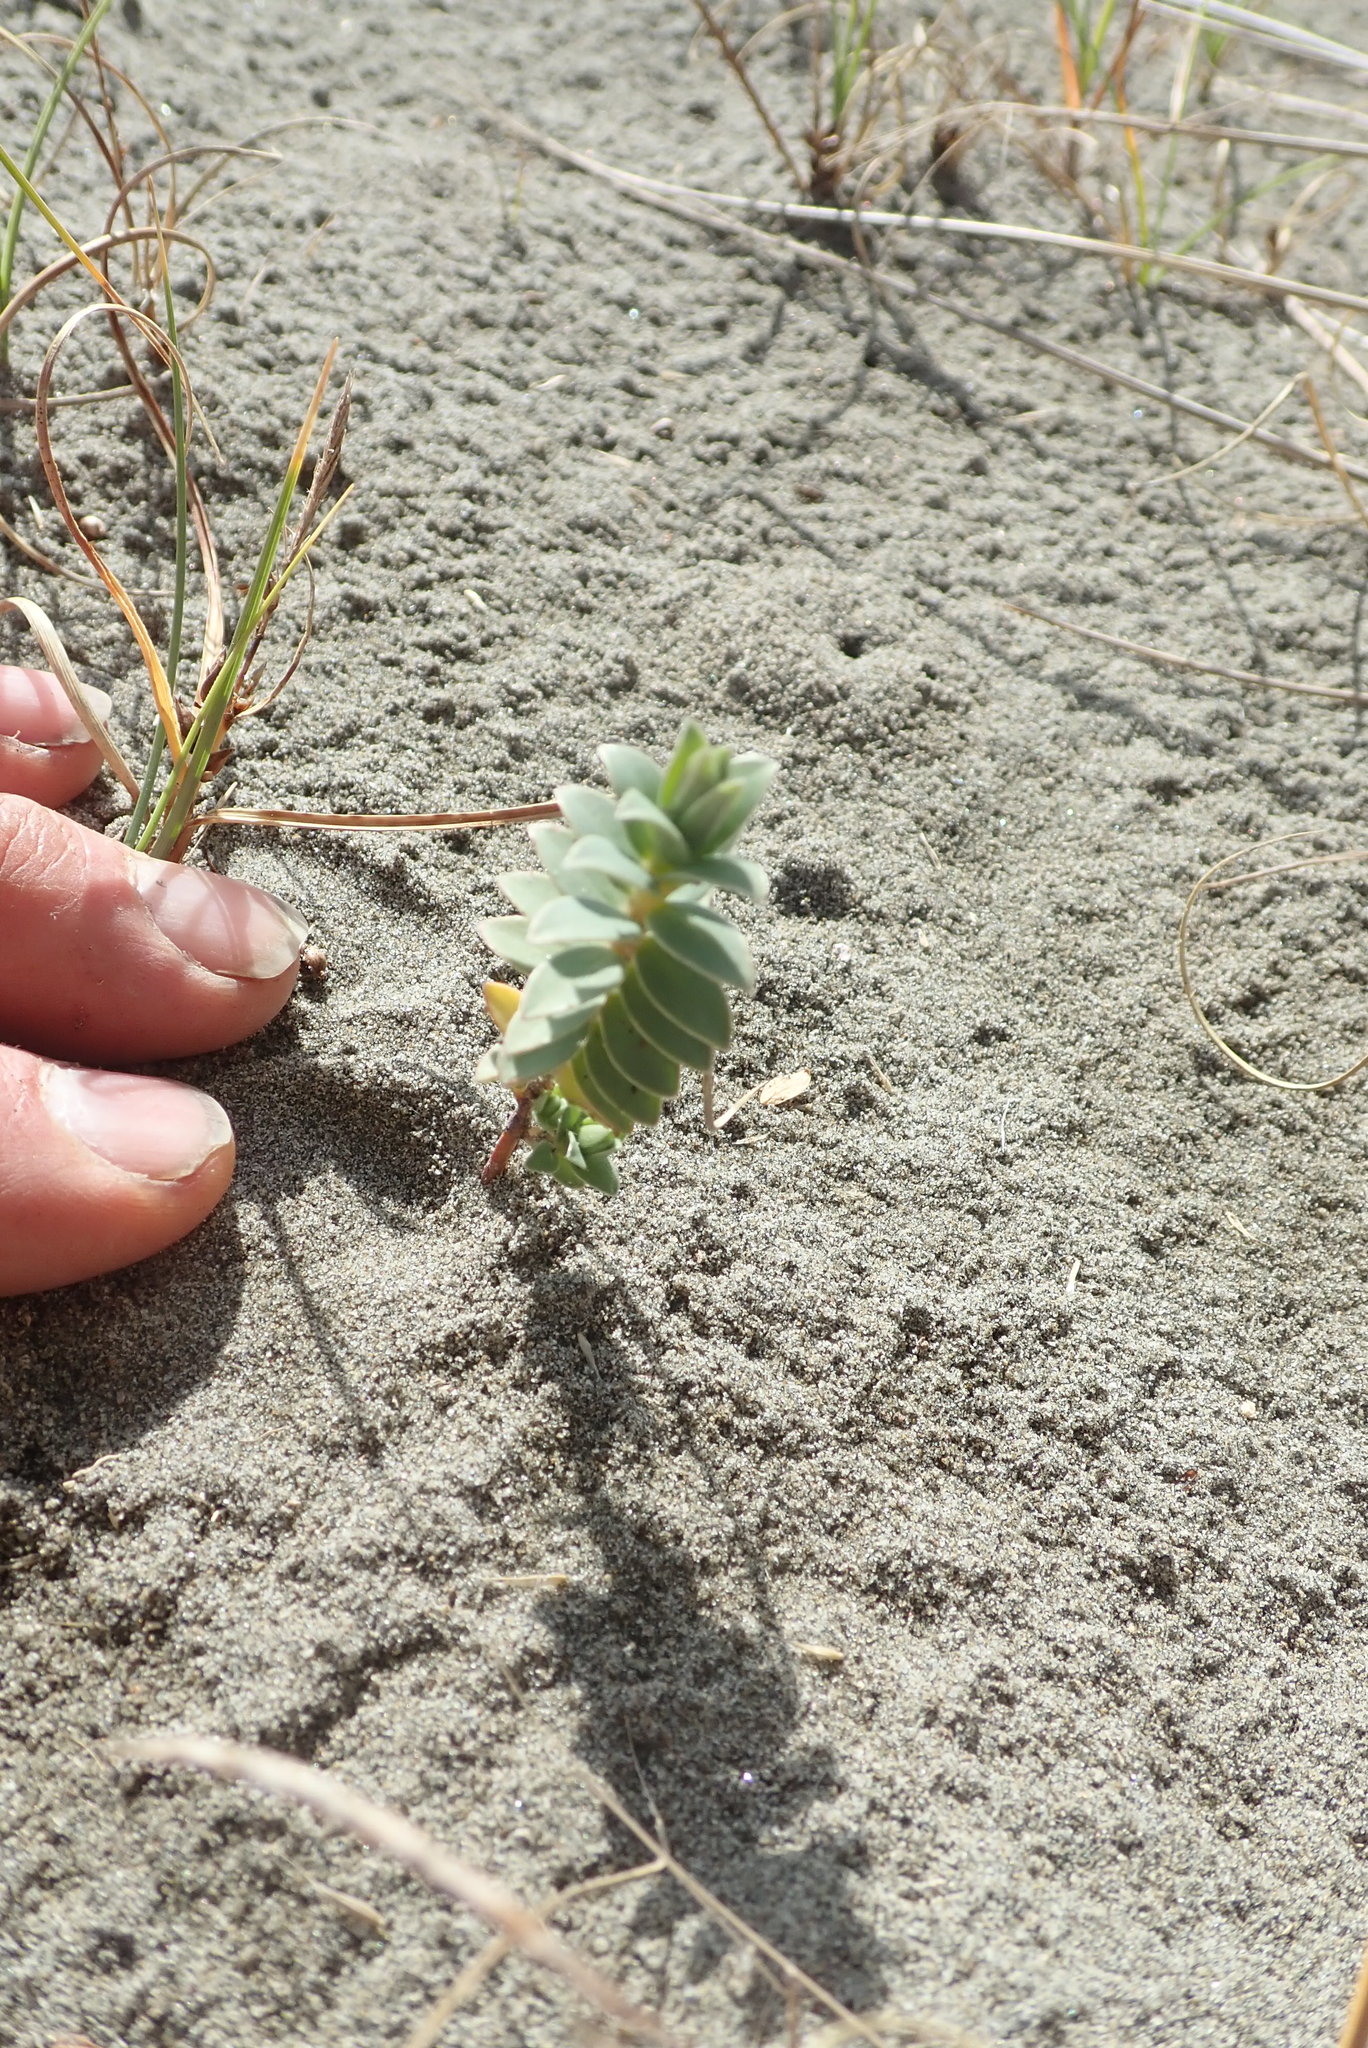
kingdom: Plantae
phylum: Tracheophyta
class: Magnoliopsida
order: Malvales
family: Thymelaeaceae
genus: Pimelea
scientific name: Pimelea villosa
